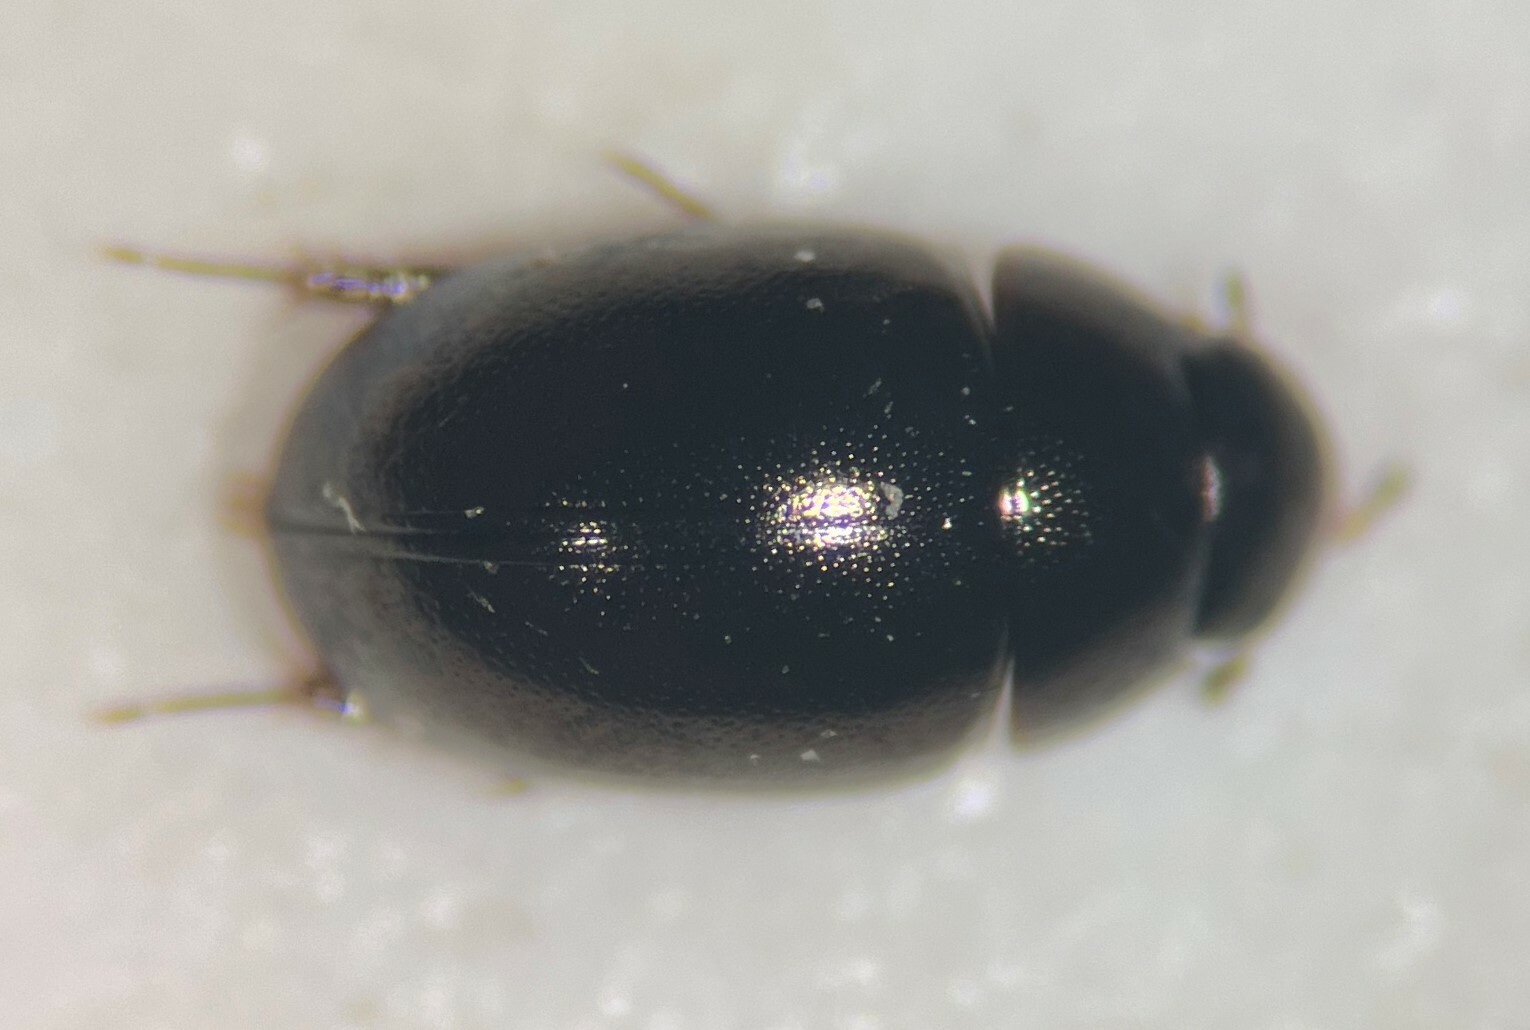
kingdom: Animalia
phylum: Arthropoda
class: Insecta
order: Coleoptera
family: Hydrophilidae
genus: Paracymus
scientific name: Paracymus subcupreus
